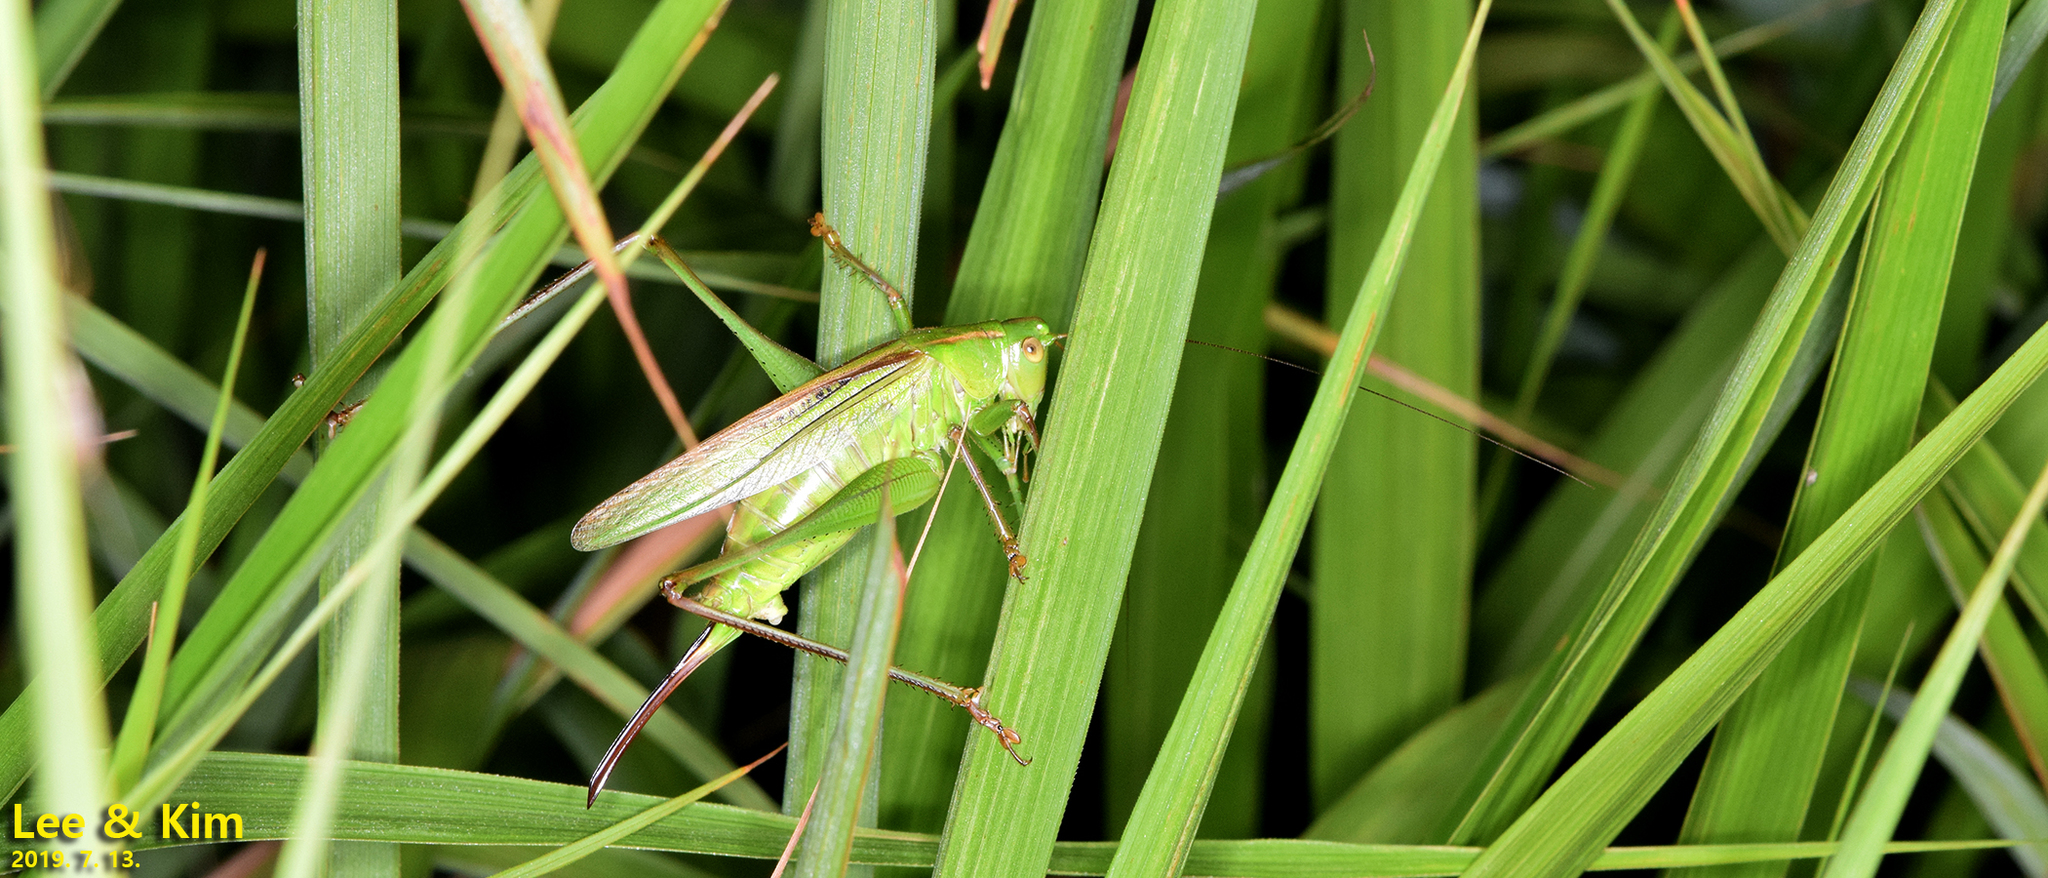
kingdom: Animalia
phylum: Arthropoda
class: Insecta
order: Orthoptera
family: Tettigoniidae
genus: Gampsocleis
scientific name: Gampsocleis ussuriensis
